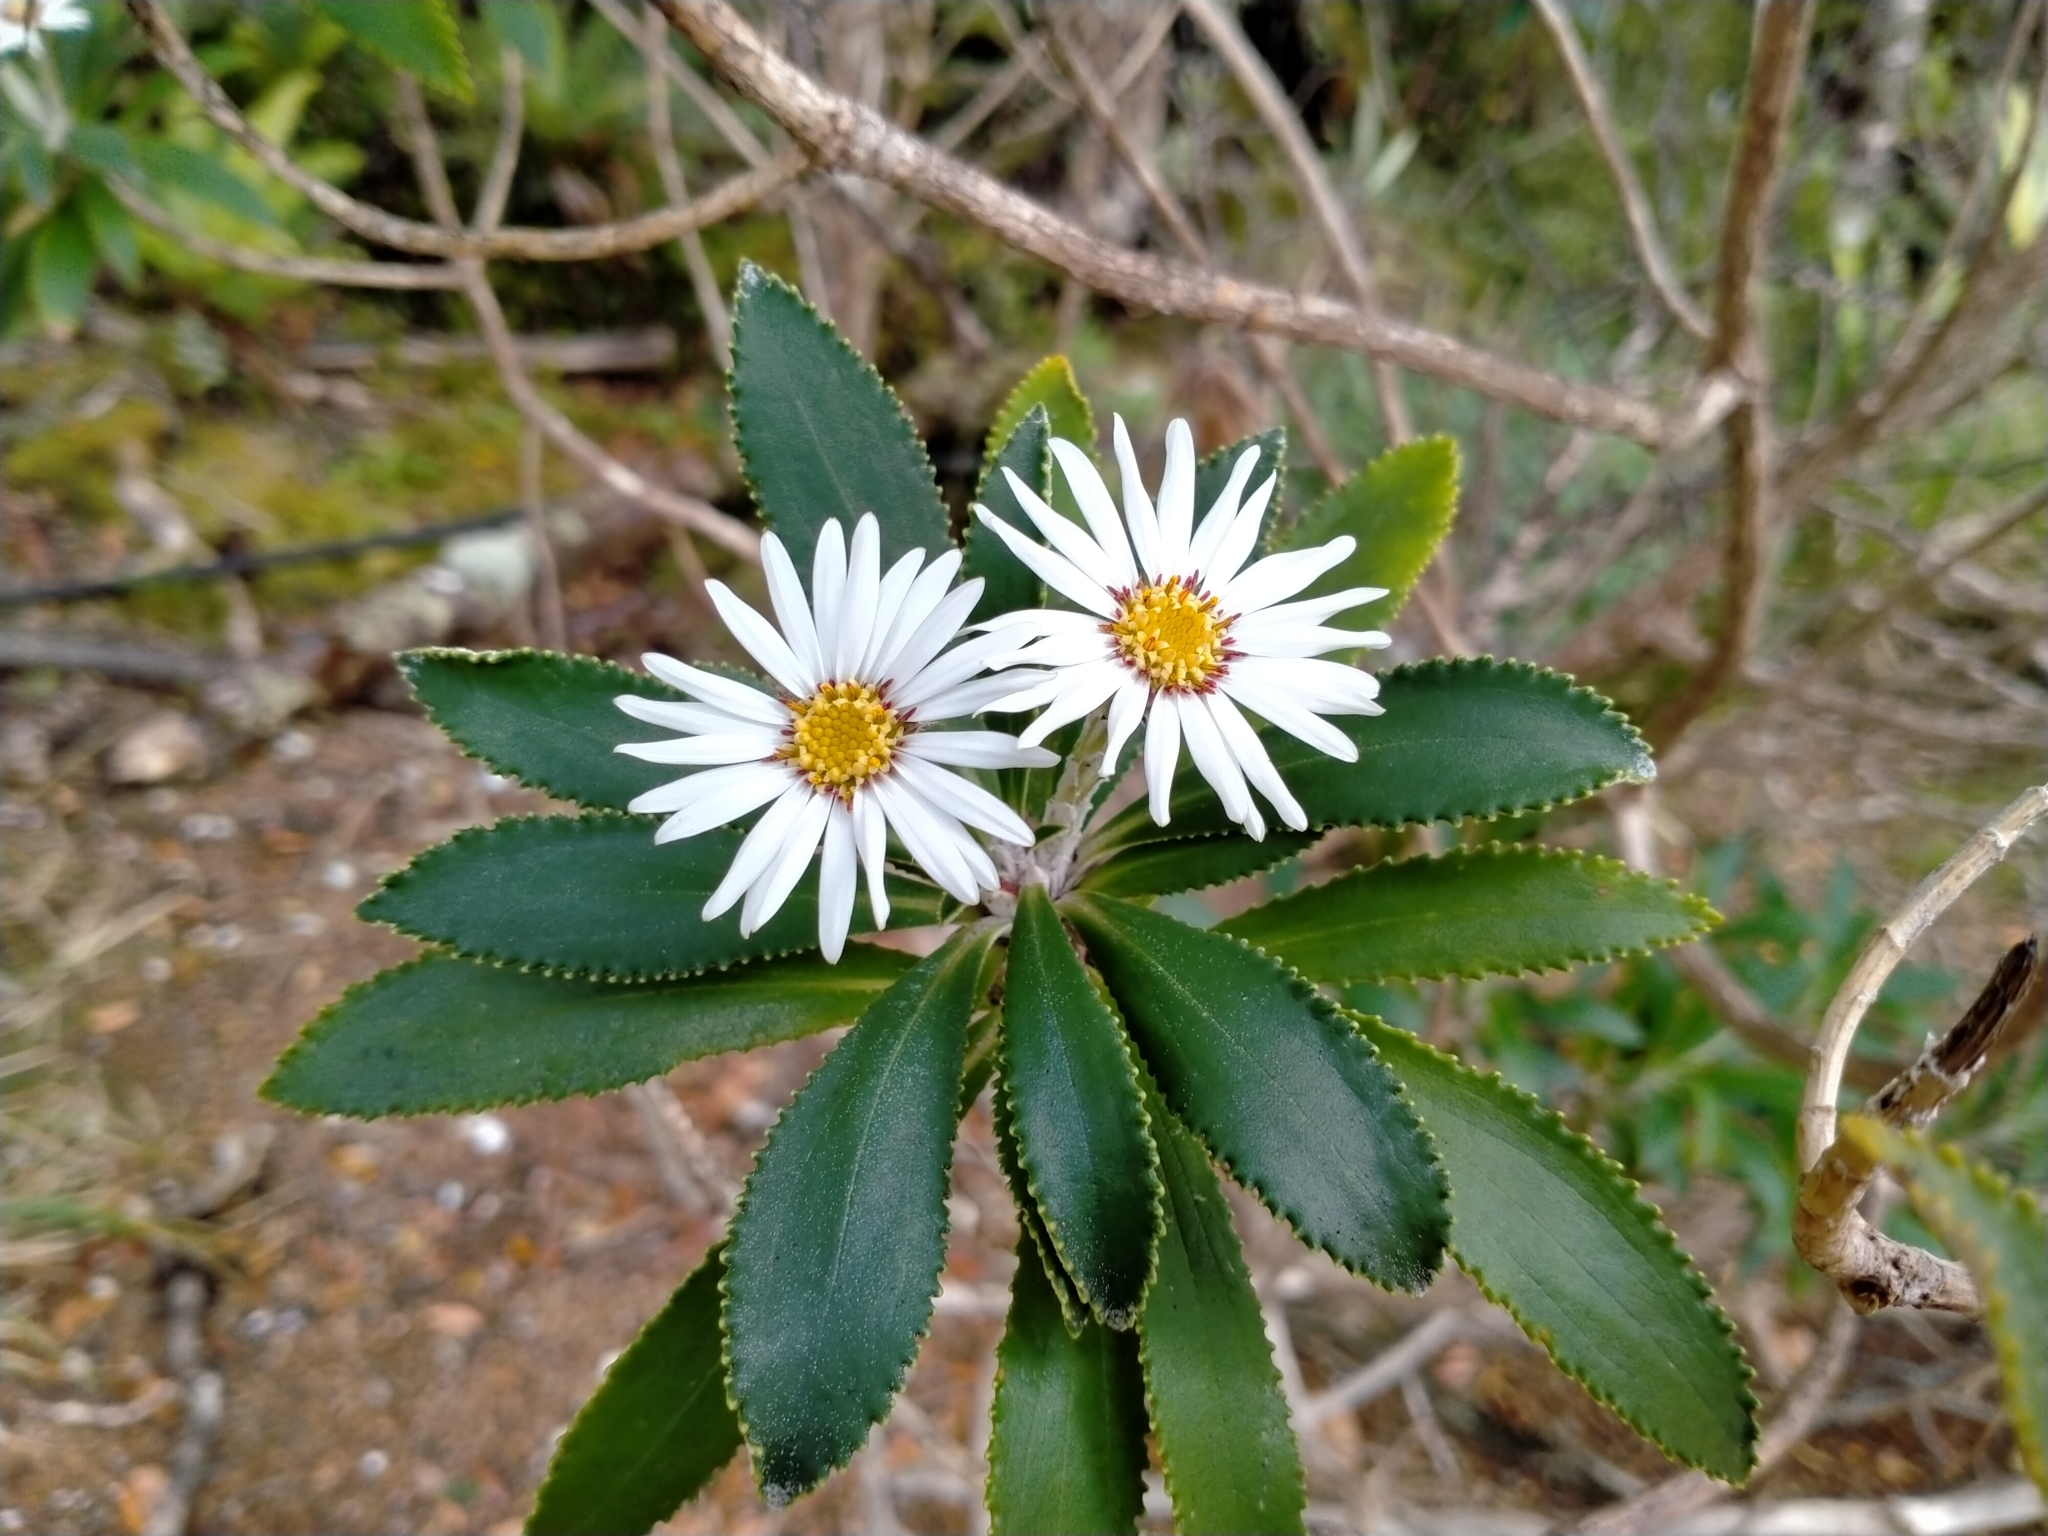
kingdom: Plantae
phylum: Tracheophyta
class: Magnoliopsida
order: Asterales
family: Asteraceae
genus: Macrolearia
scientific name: Macrolearia oporina
